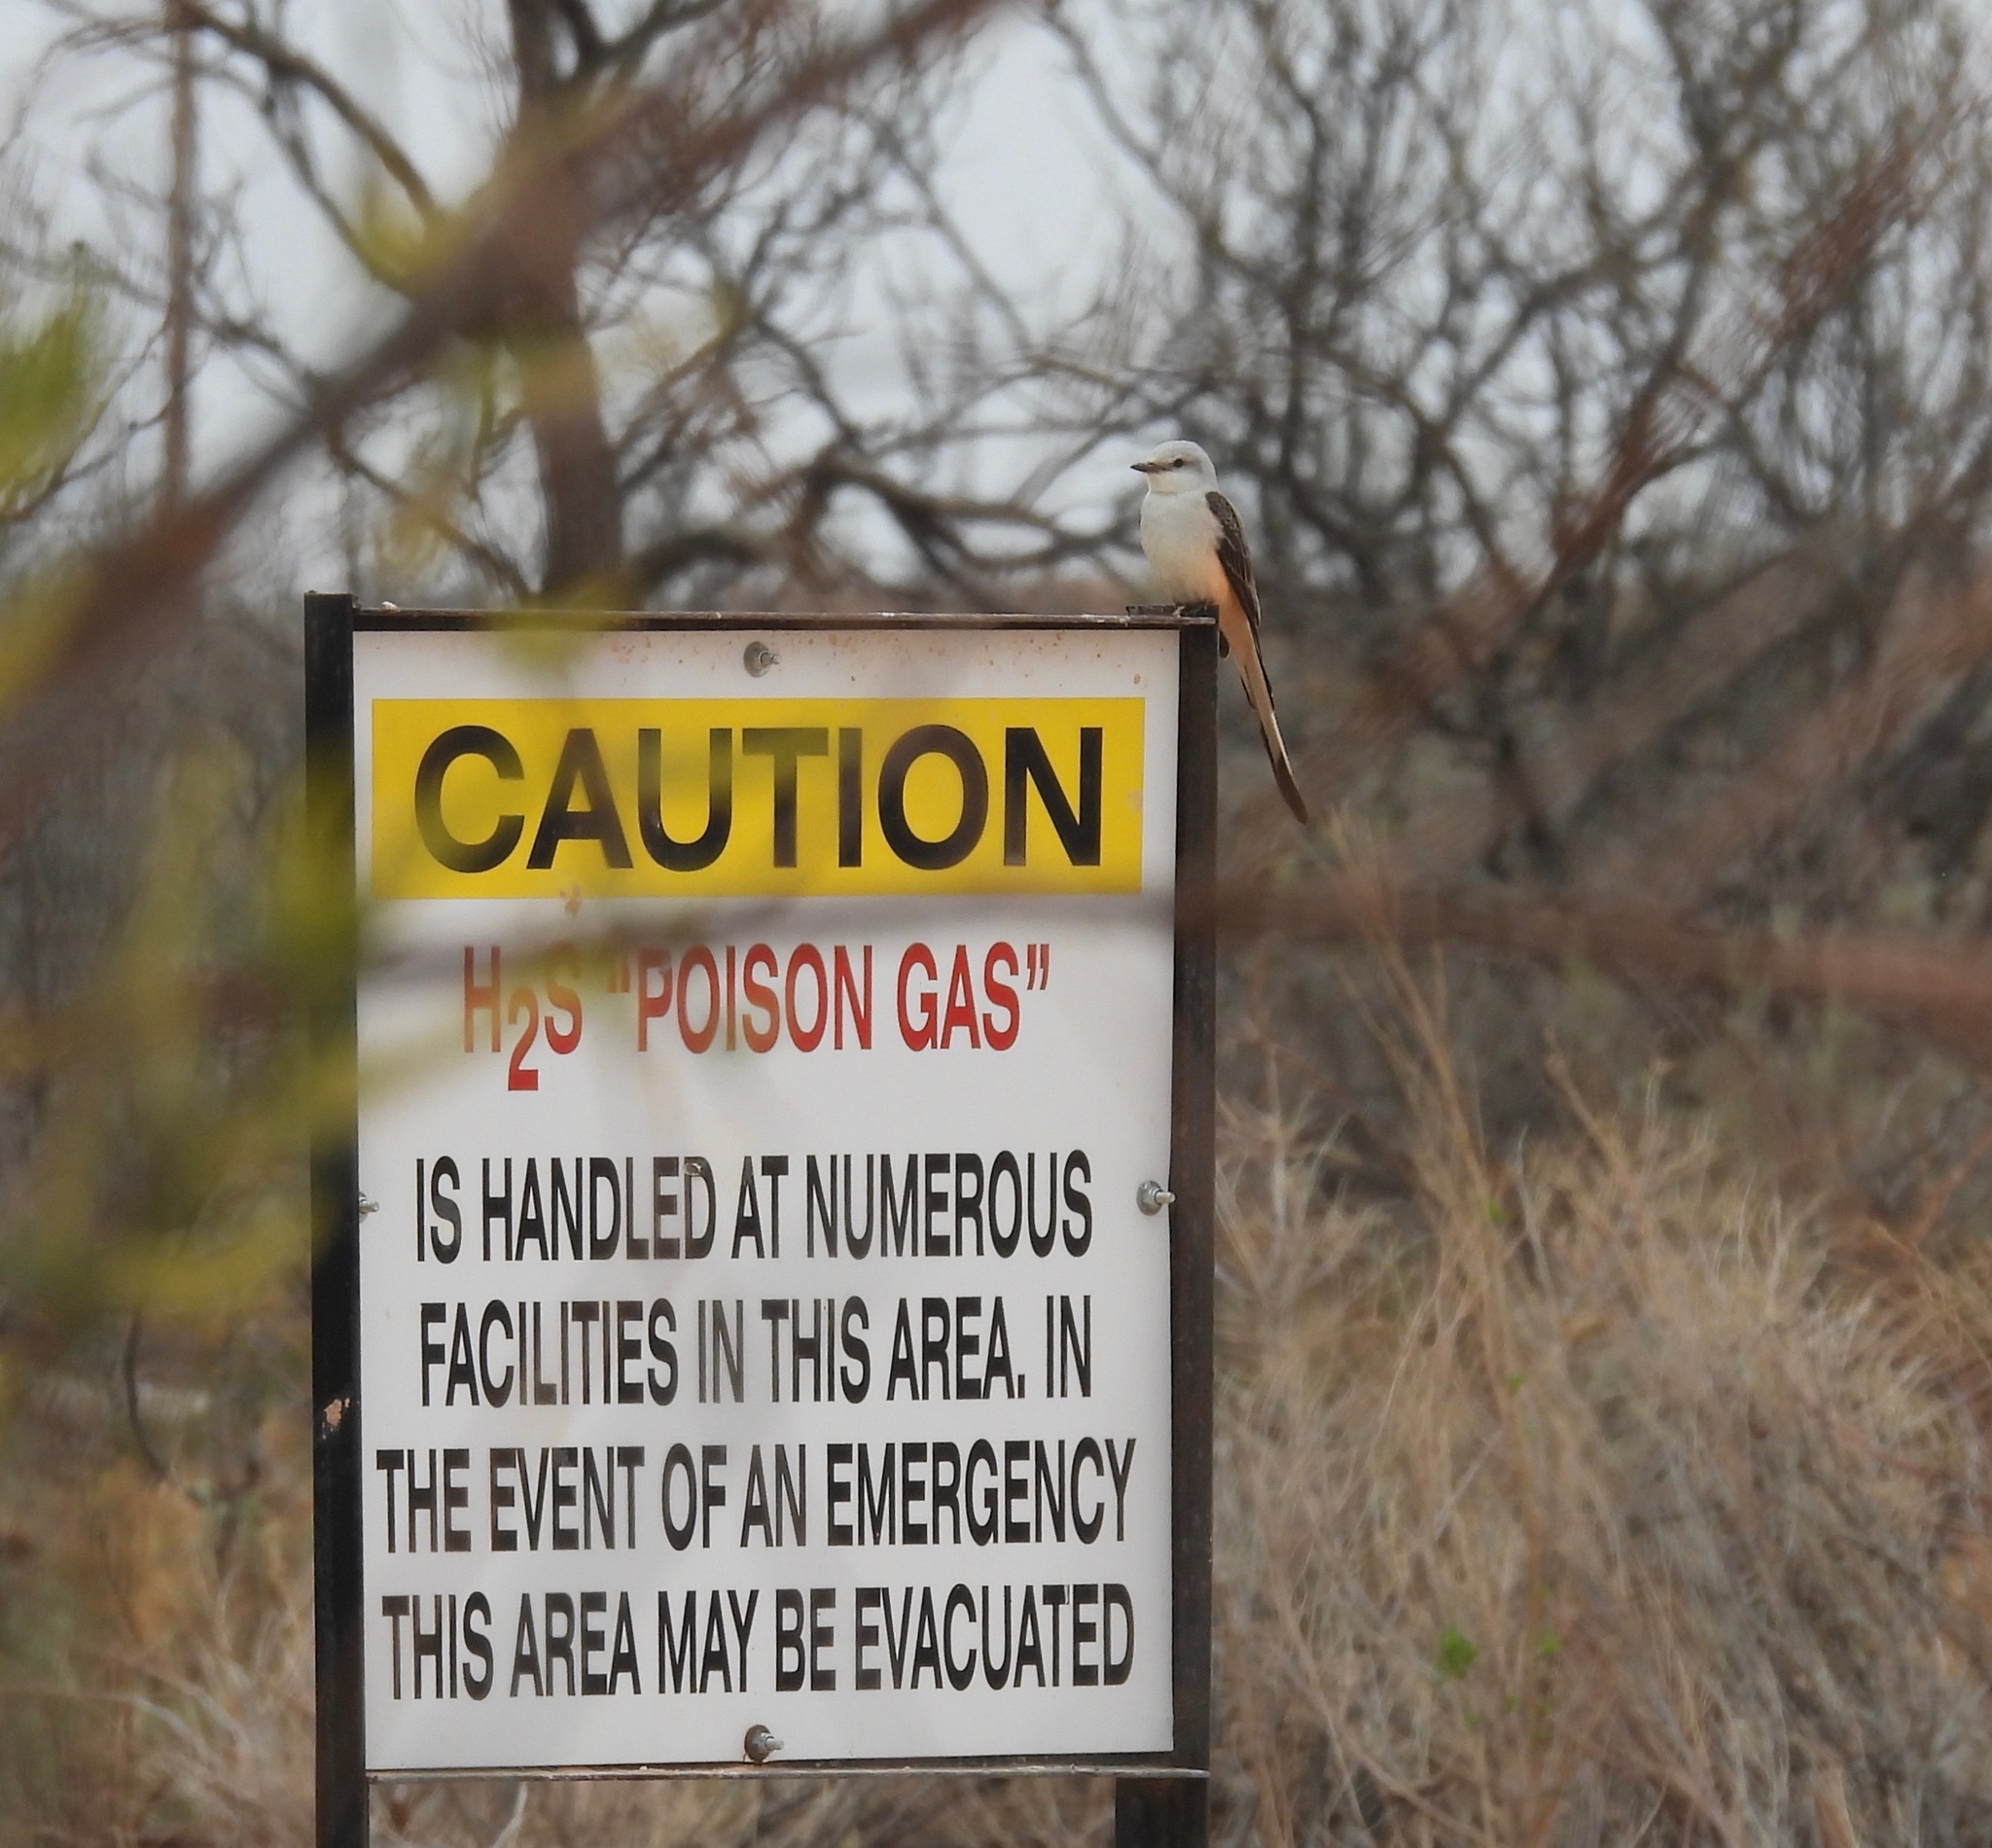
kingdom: Animalia
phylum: Chordata
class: Aves
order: Passeriformes
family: Tyrannidae
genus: Tyrannus
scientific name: Tyrannus forficatus
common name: Scissor-tailed flycatcher
